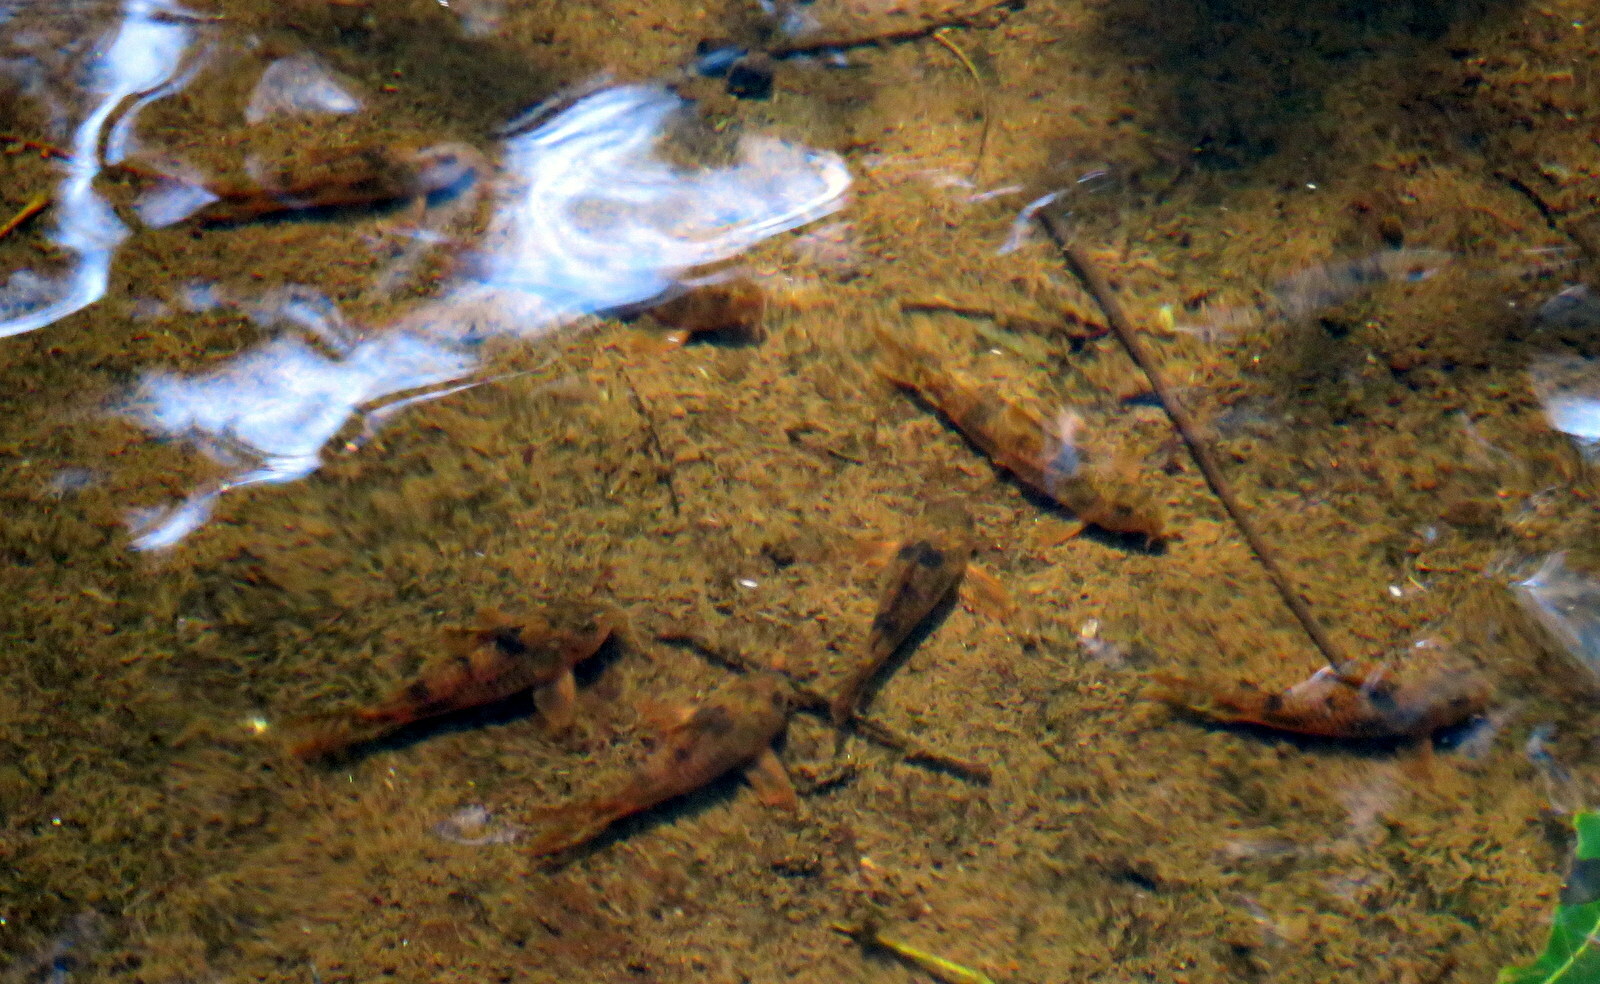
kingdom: Animalia
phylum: Chordata
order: Siluriformes
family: Callichthyidae
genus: Corydoras
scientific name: Corydoras carlae
